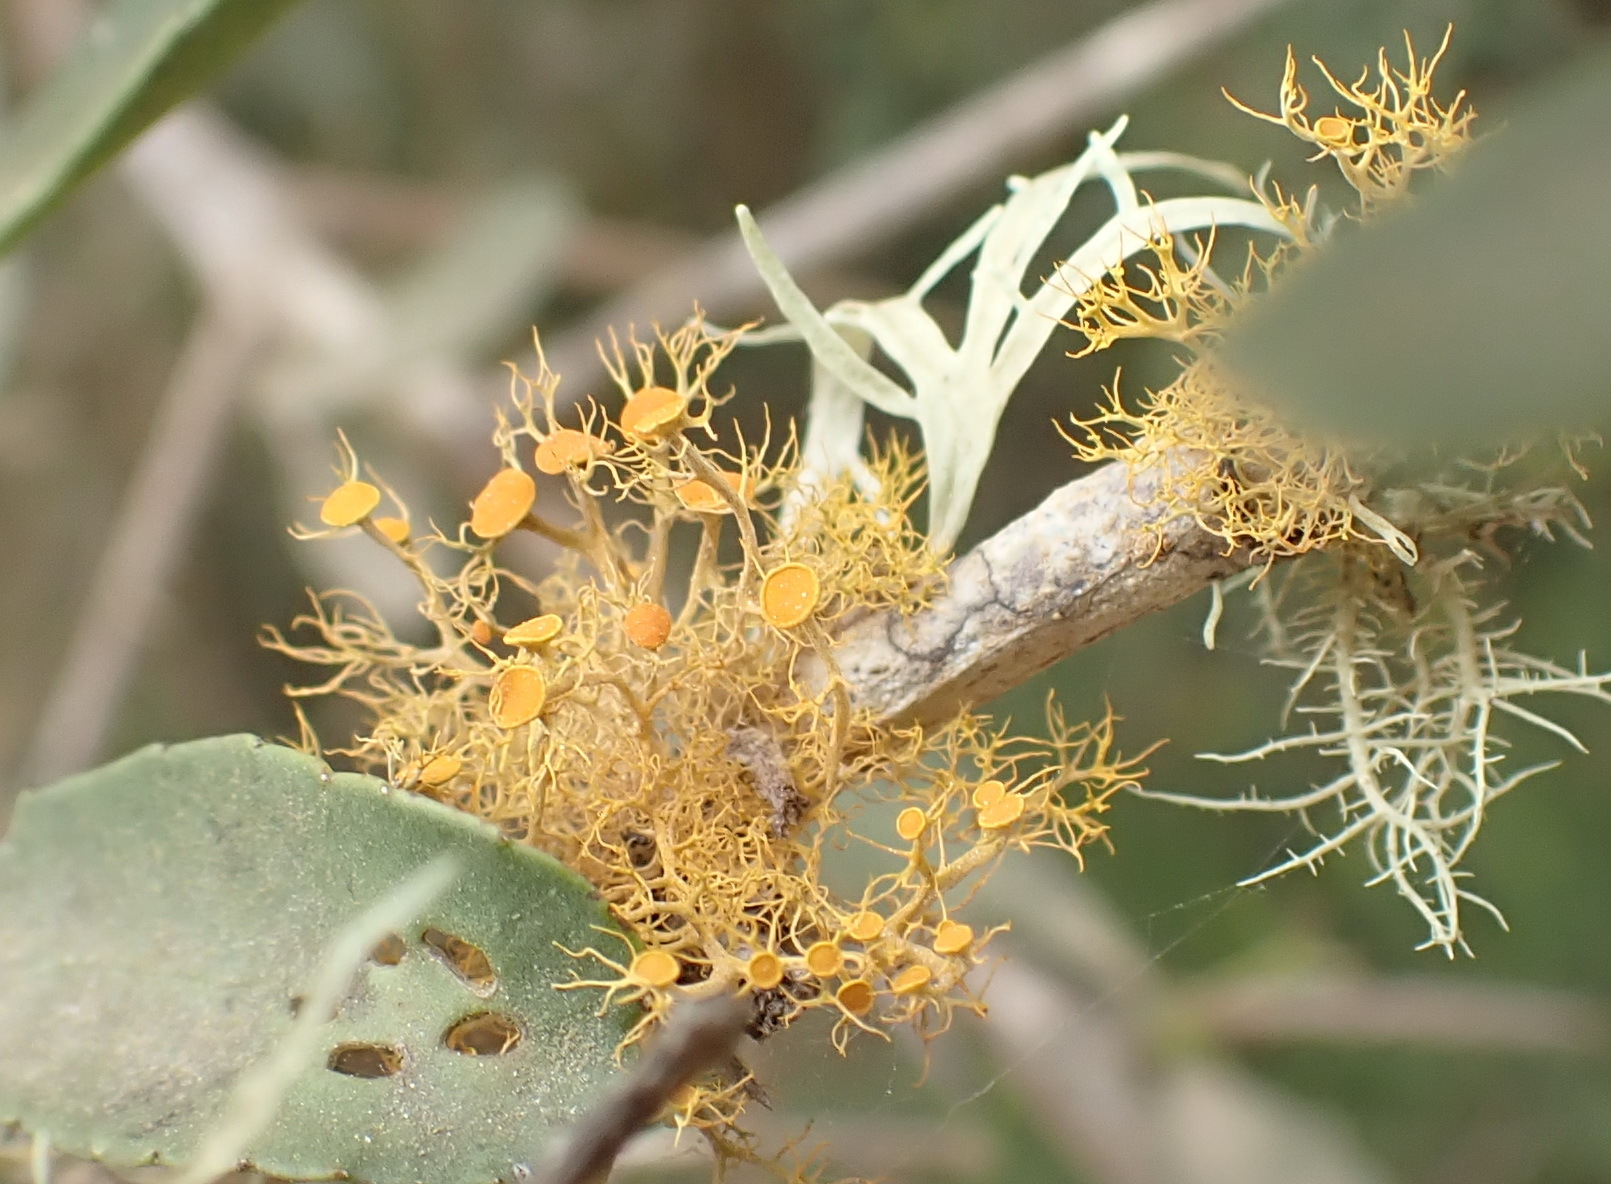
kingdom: Fungi
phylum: Ascomycota
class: Lecanoromycetes
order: Teloschistales
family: Teloschistaceae
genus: Teloschistes
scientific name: Teloschistes exilis
